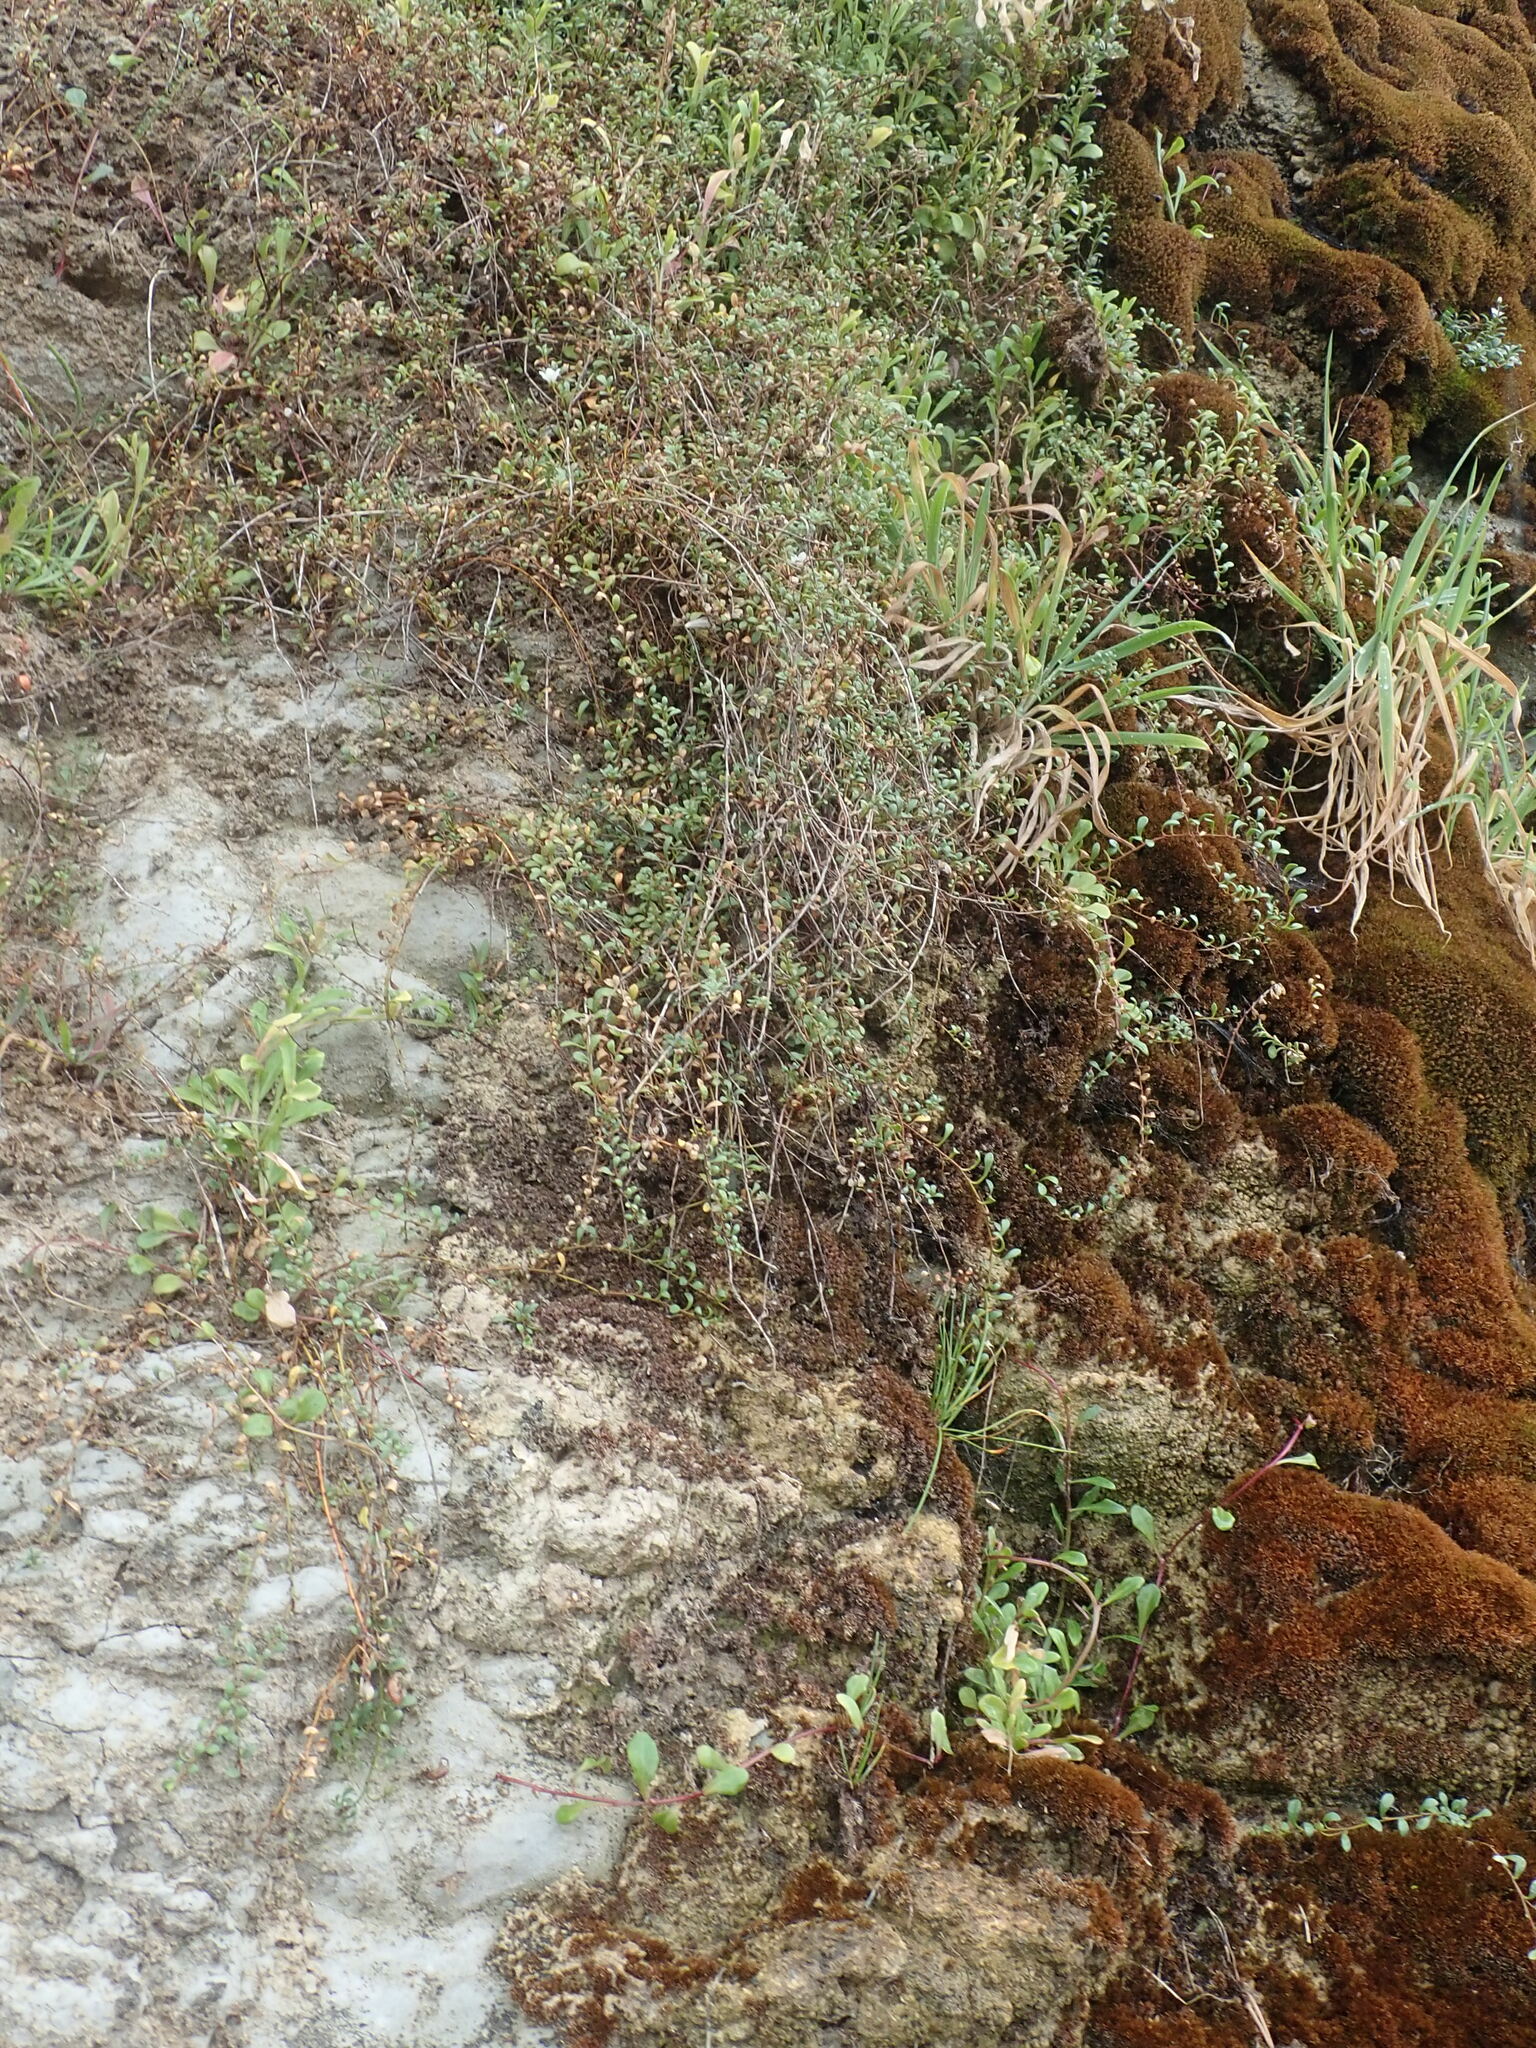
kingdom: Plantae
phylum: Tracheophyta
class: Magnoliopsida
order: Ericales
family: Primulaceae
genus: Samolus
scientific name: Samolus repens
